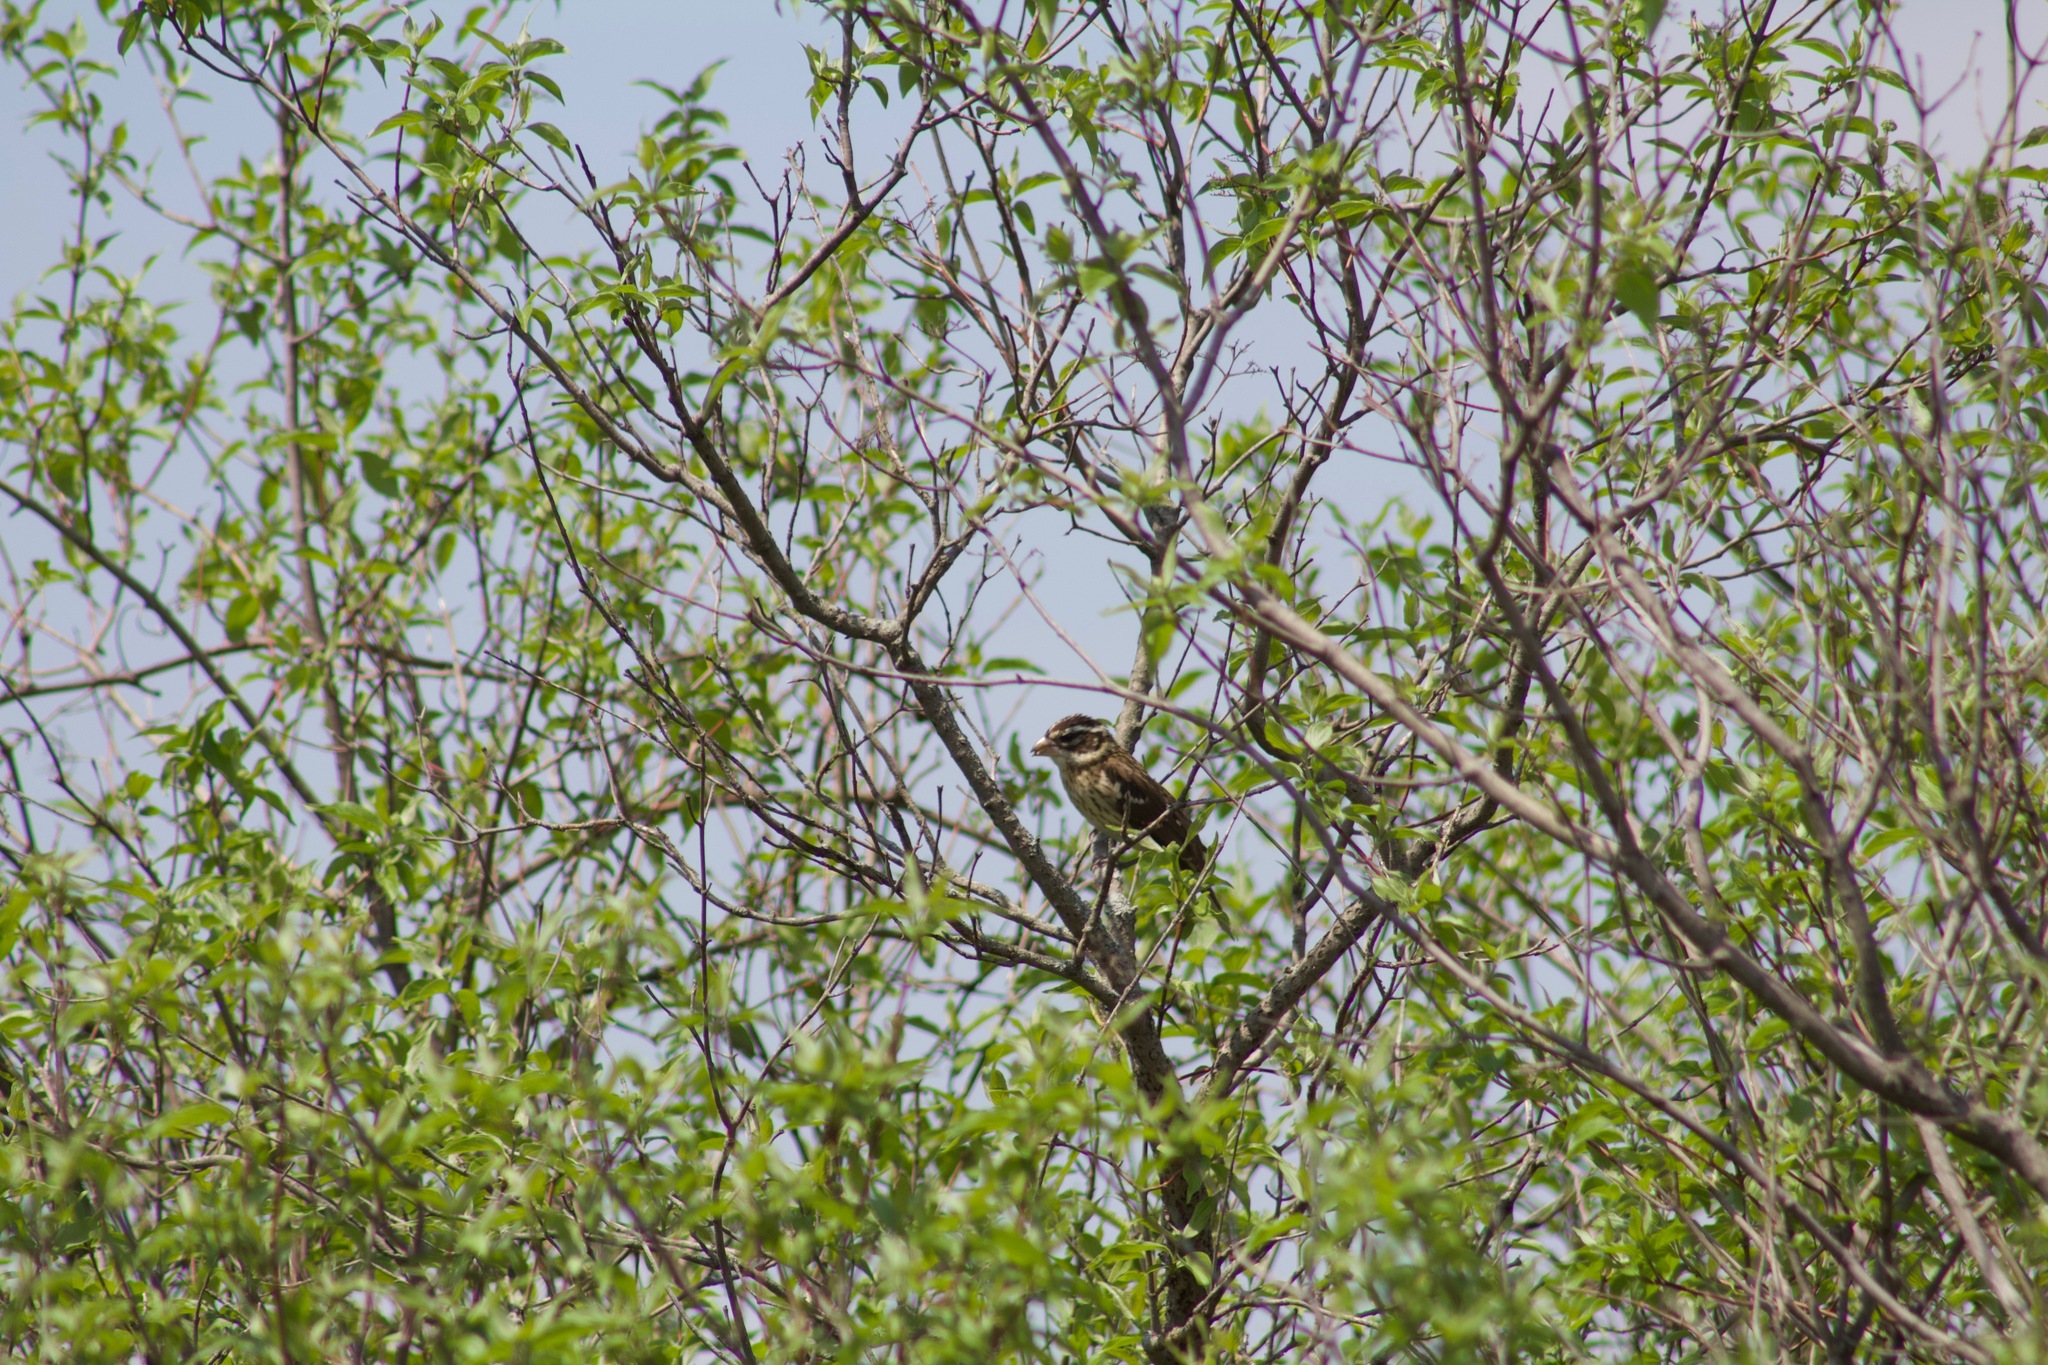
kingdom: Animalia
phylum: Chordata
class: Aves
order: Passeriformes
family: Cardinalidae
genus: Pheucticus
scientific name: Pheucticus ludovicianus
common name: Rose-breasted grosbeak
